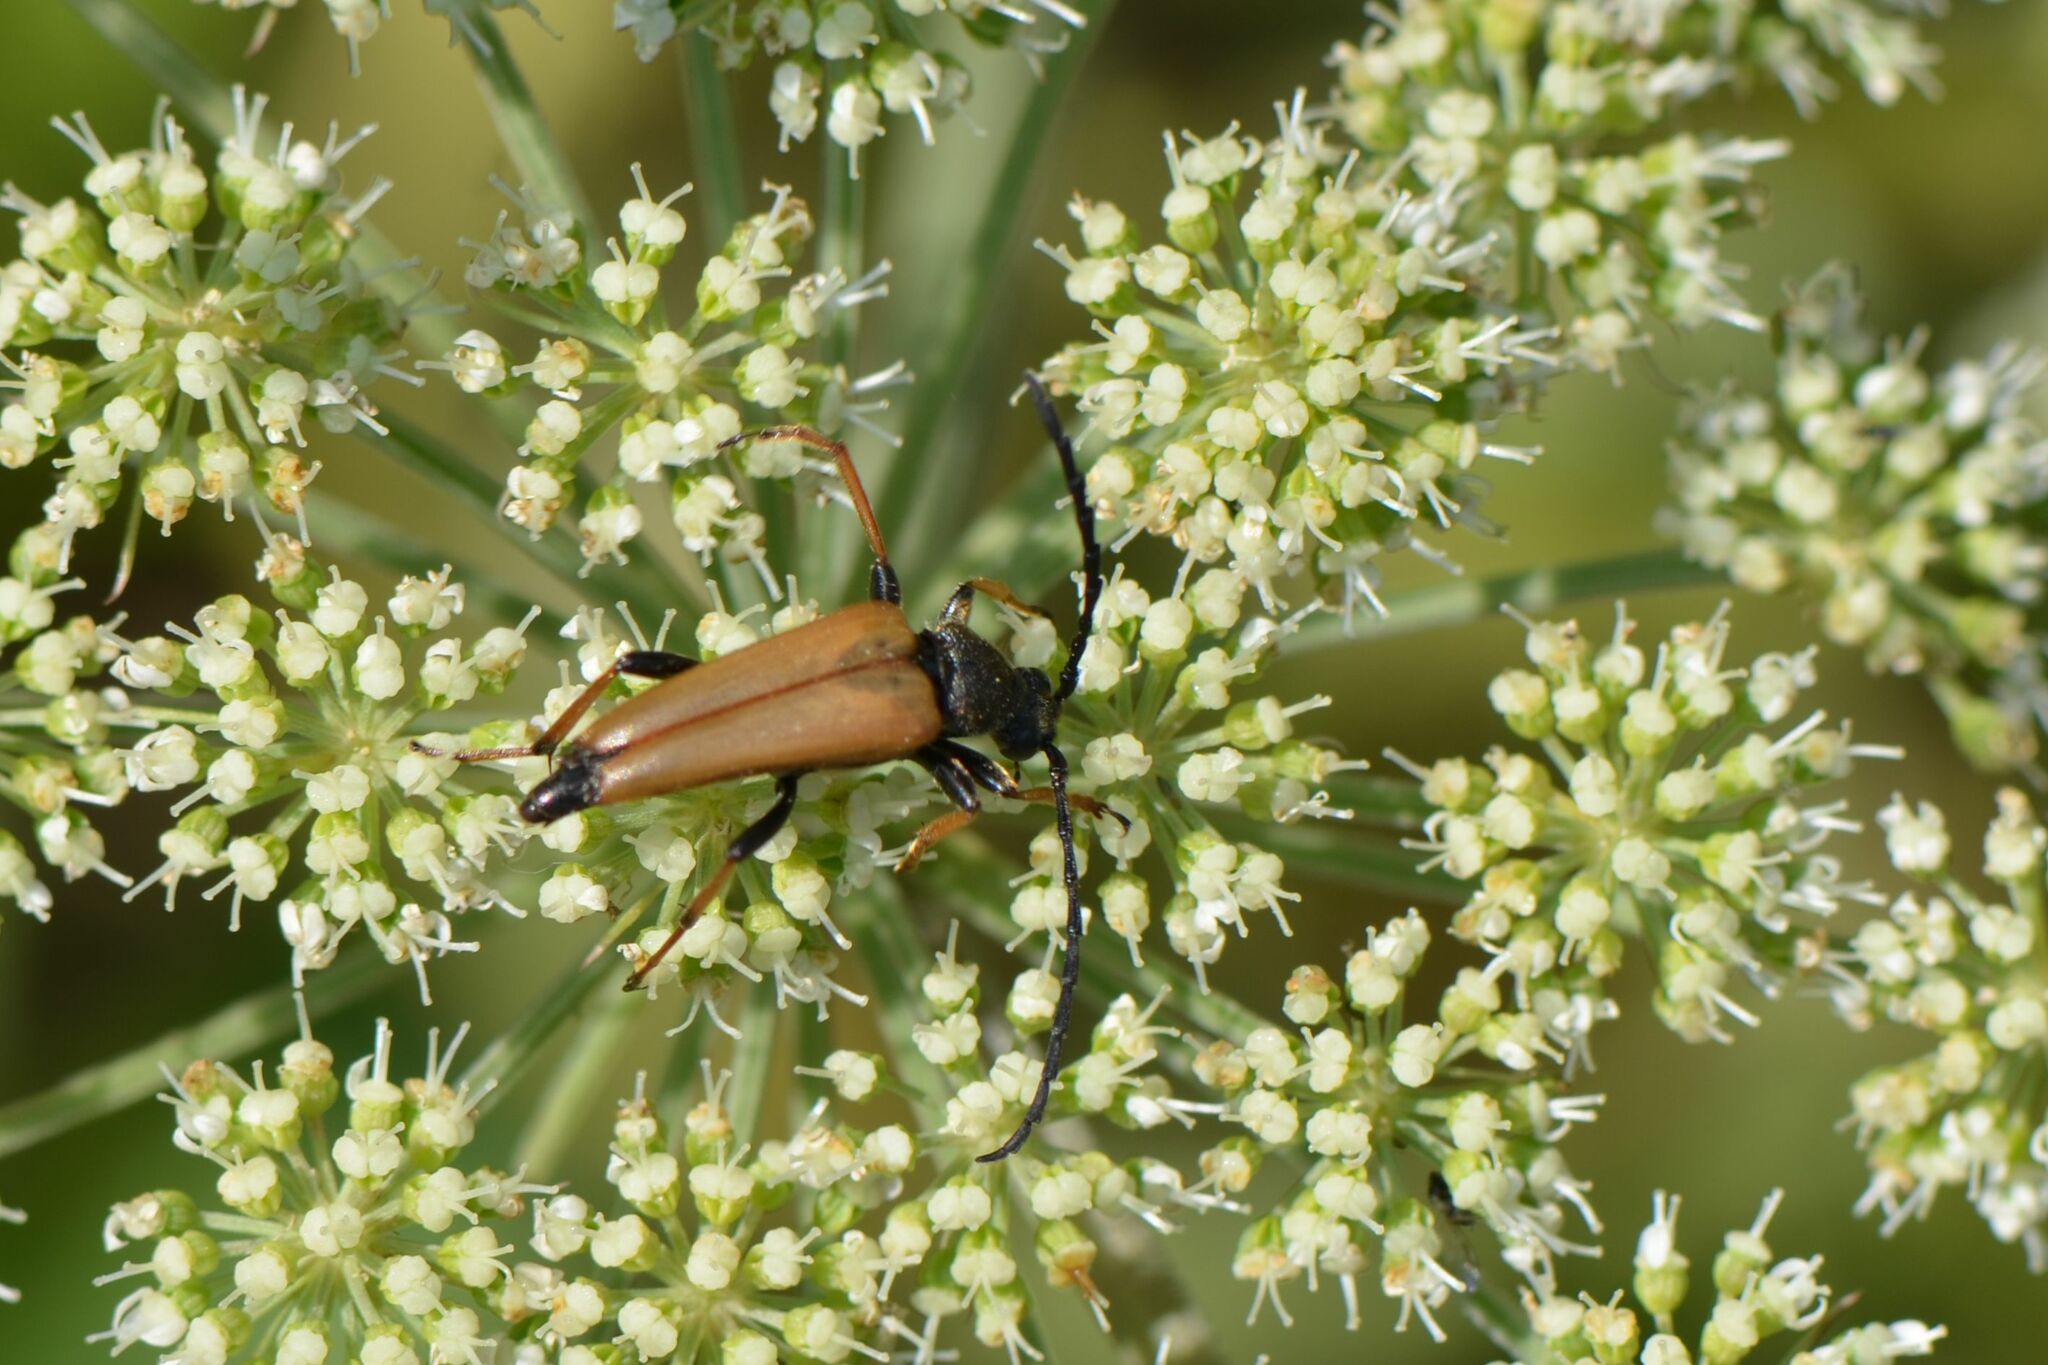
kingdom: Animalia
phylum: Arthropoda
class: Insecta
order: Coleoptera
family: Cerambycidae
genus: Stictoleptura
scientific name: Stictoleptura rubra
